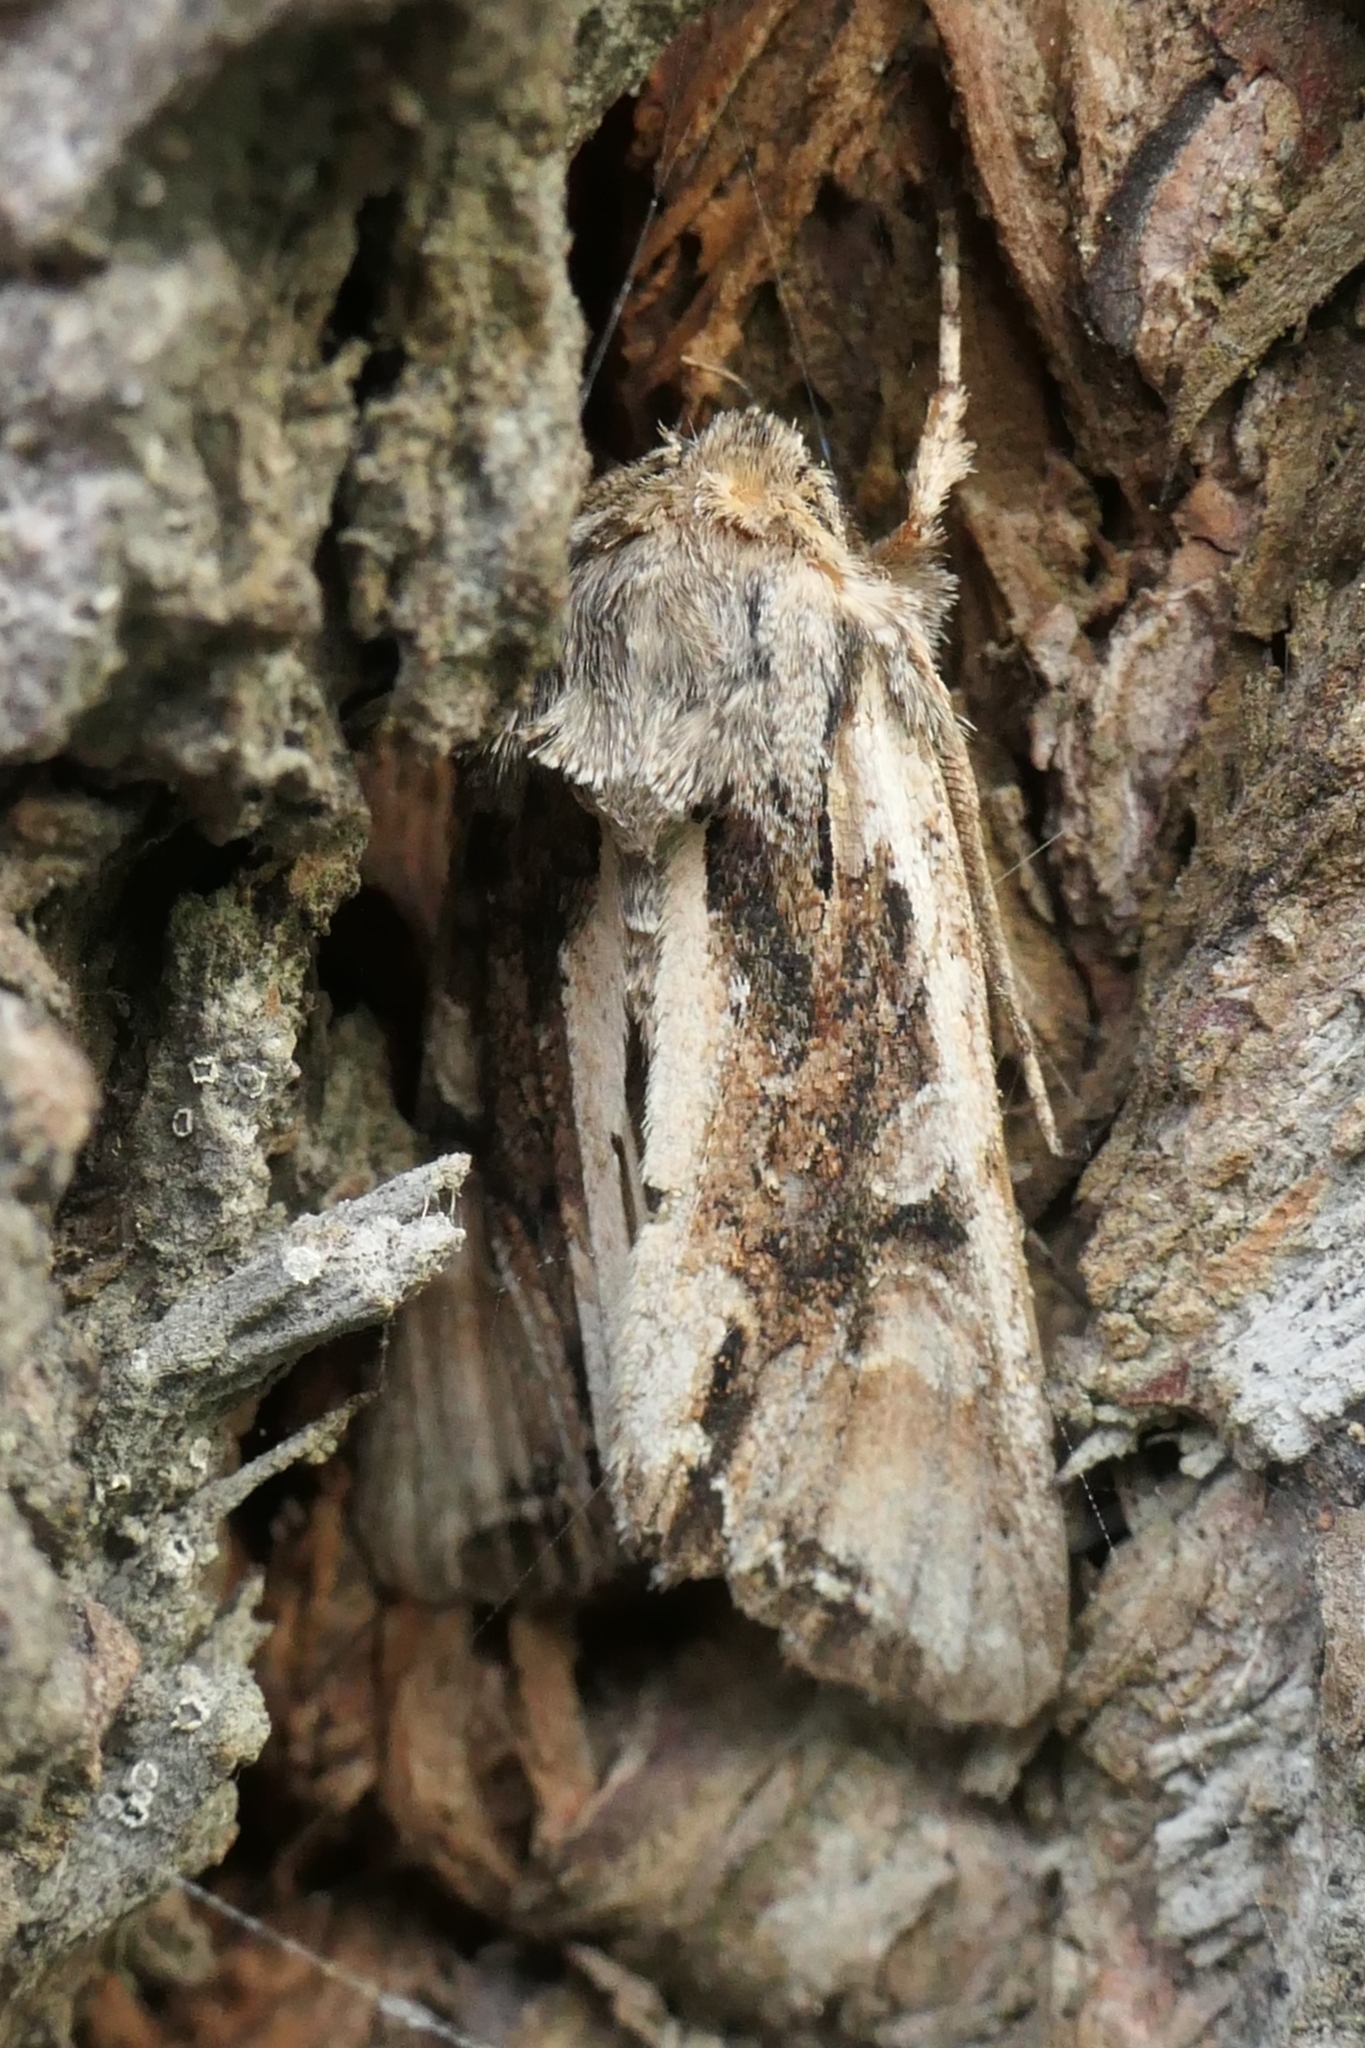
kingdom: Animalia
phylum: Arthropoda
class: Insecta
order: Lepidoptera
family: Noctuidae
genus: Ichneutica
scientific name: Ichneutica insignis
